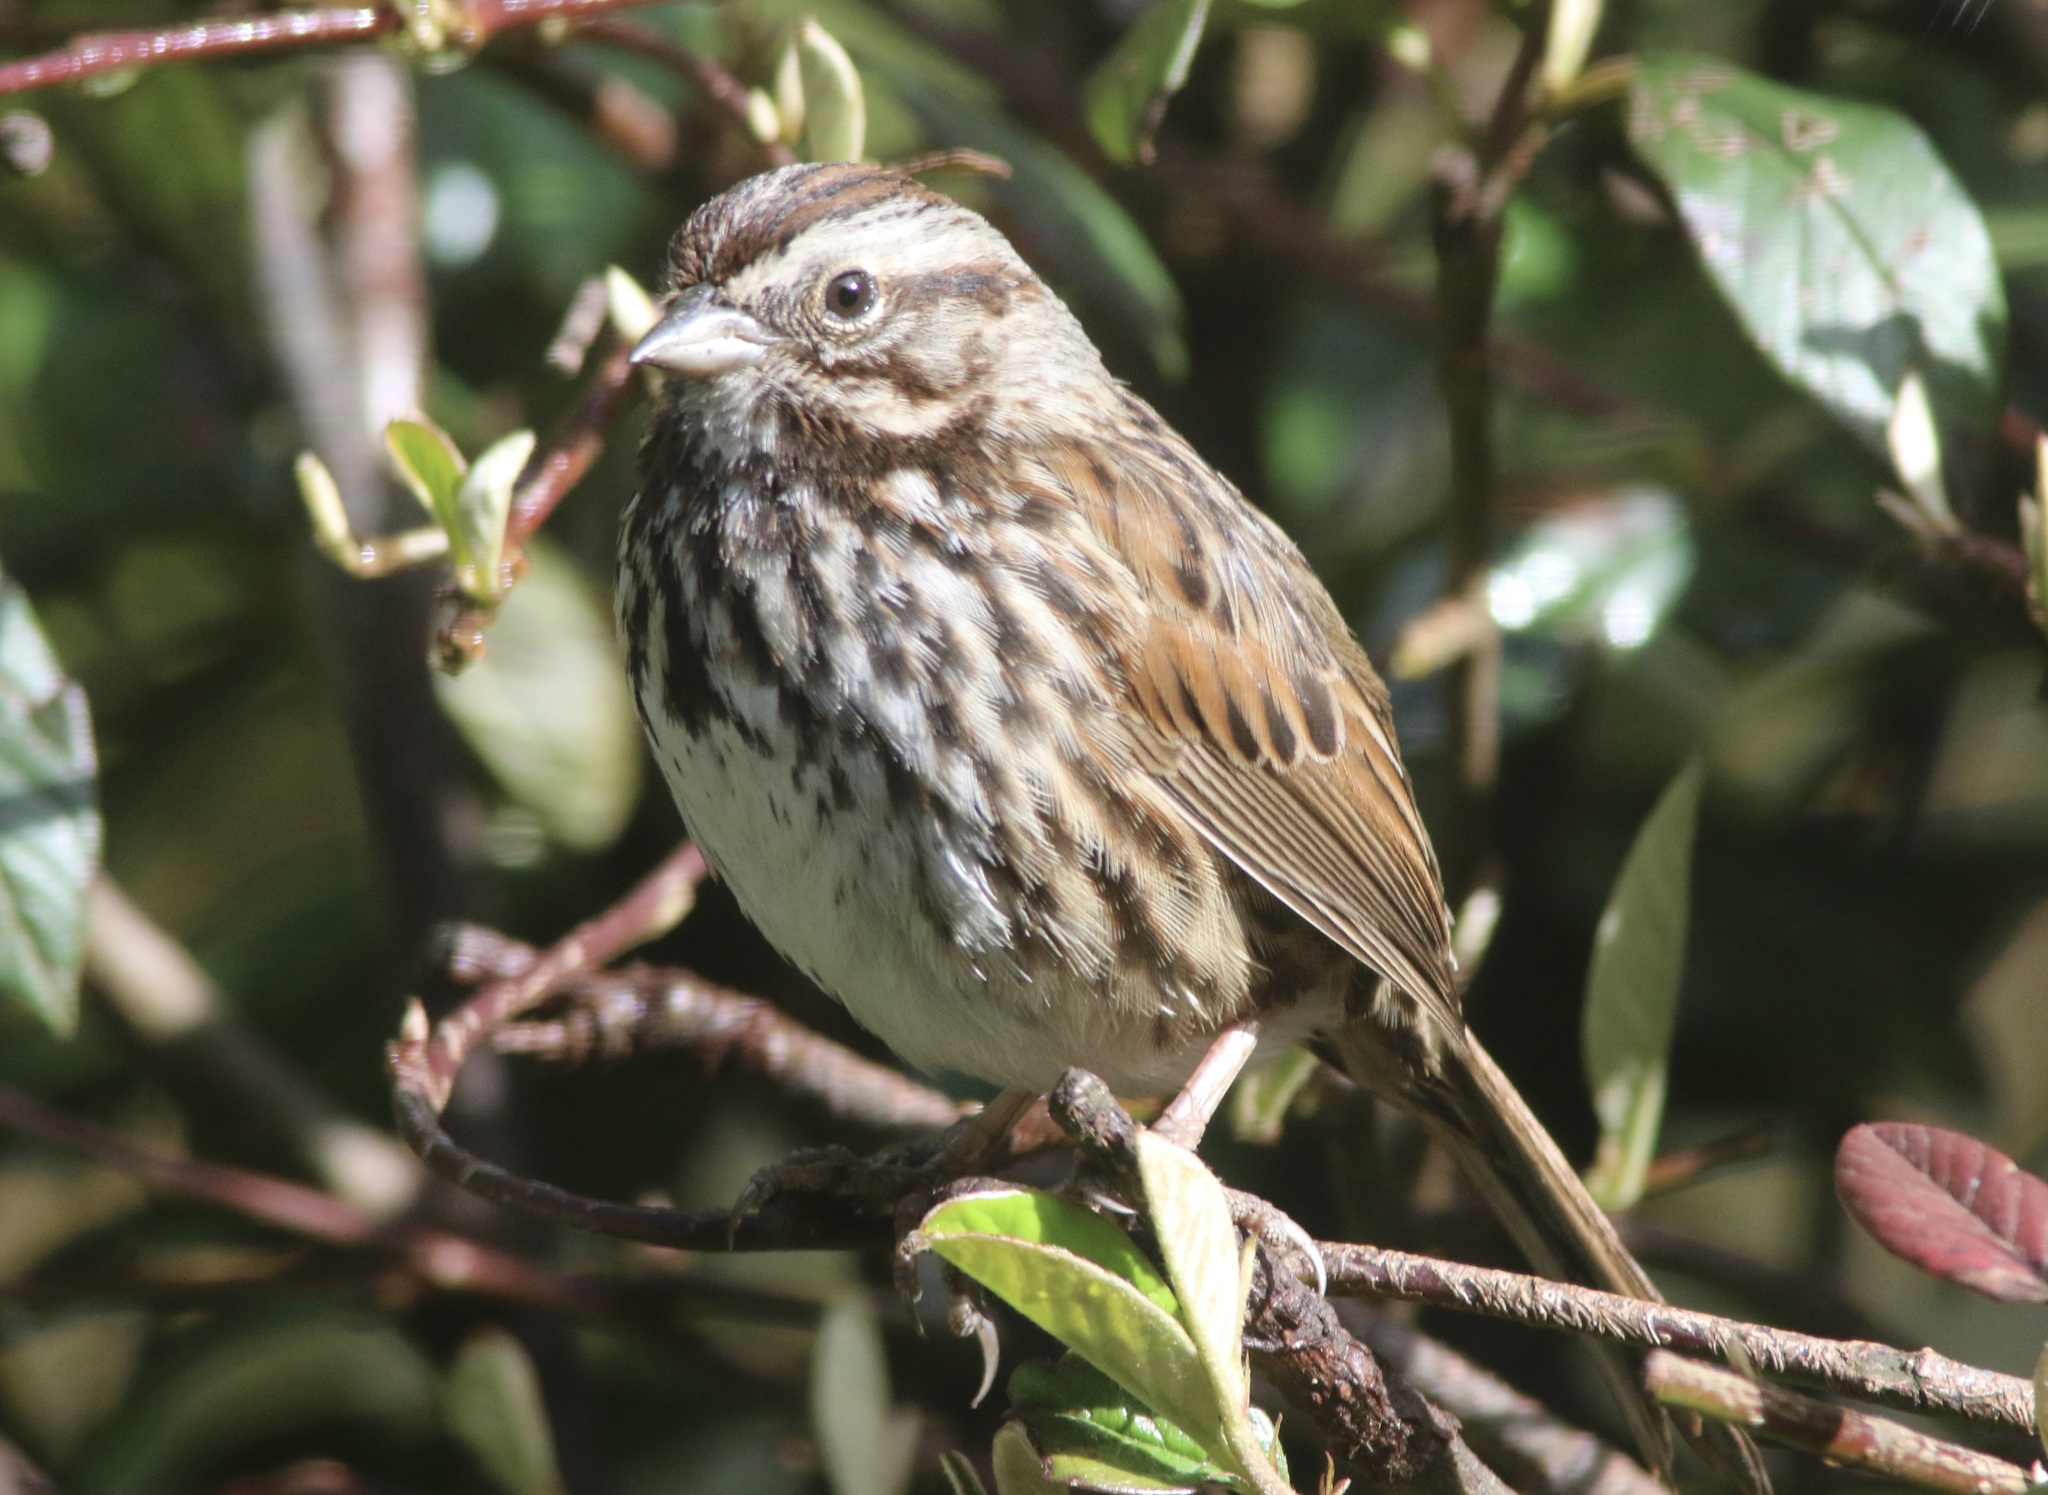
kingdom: Animalia
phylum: Chordata
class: Aves
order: Passeriformes
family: Passerellidae
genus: Melospiza
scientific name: Melospiza melodia
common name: Song sparrow
